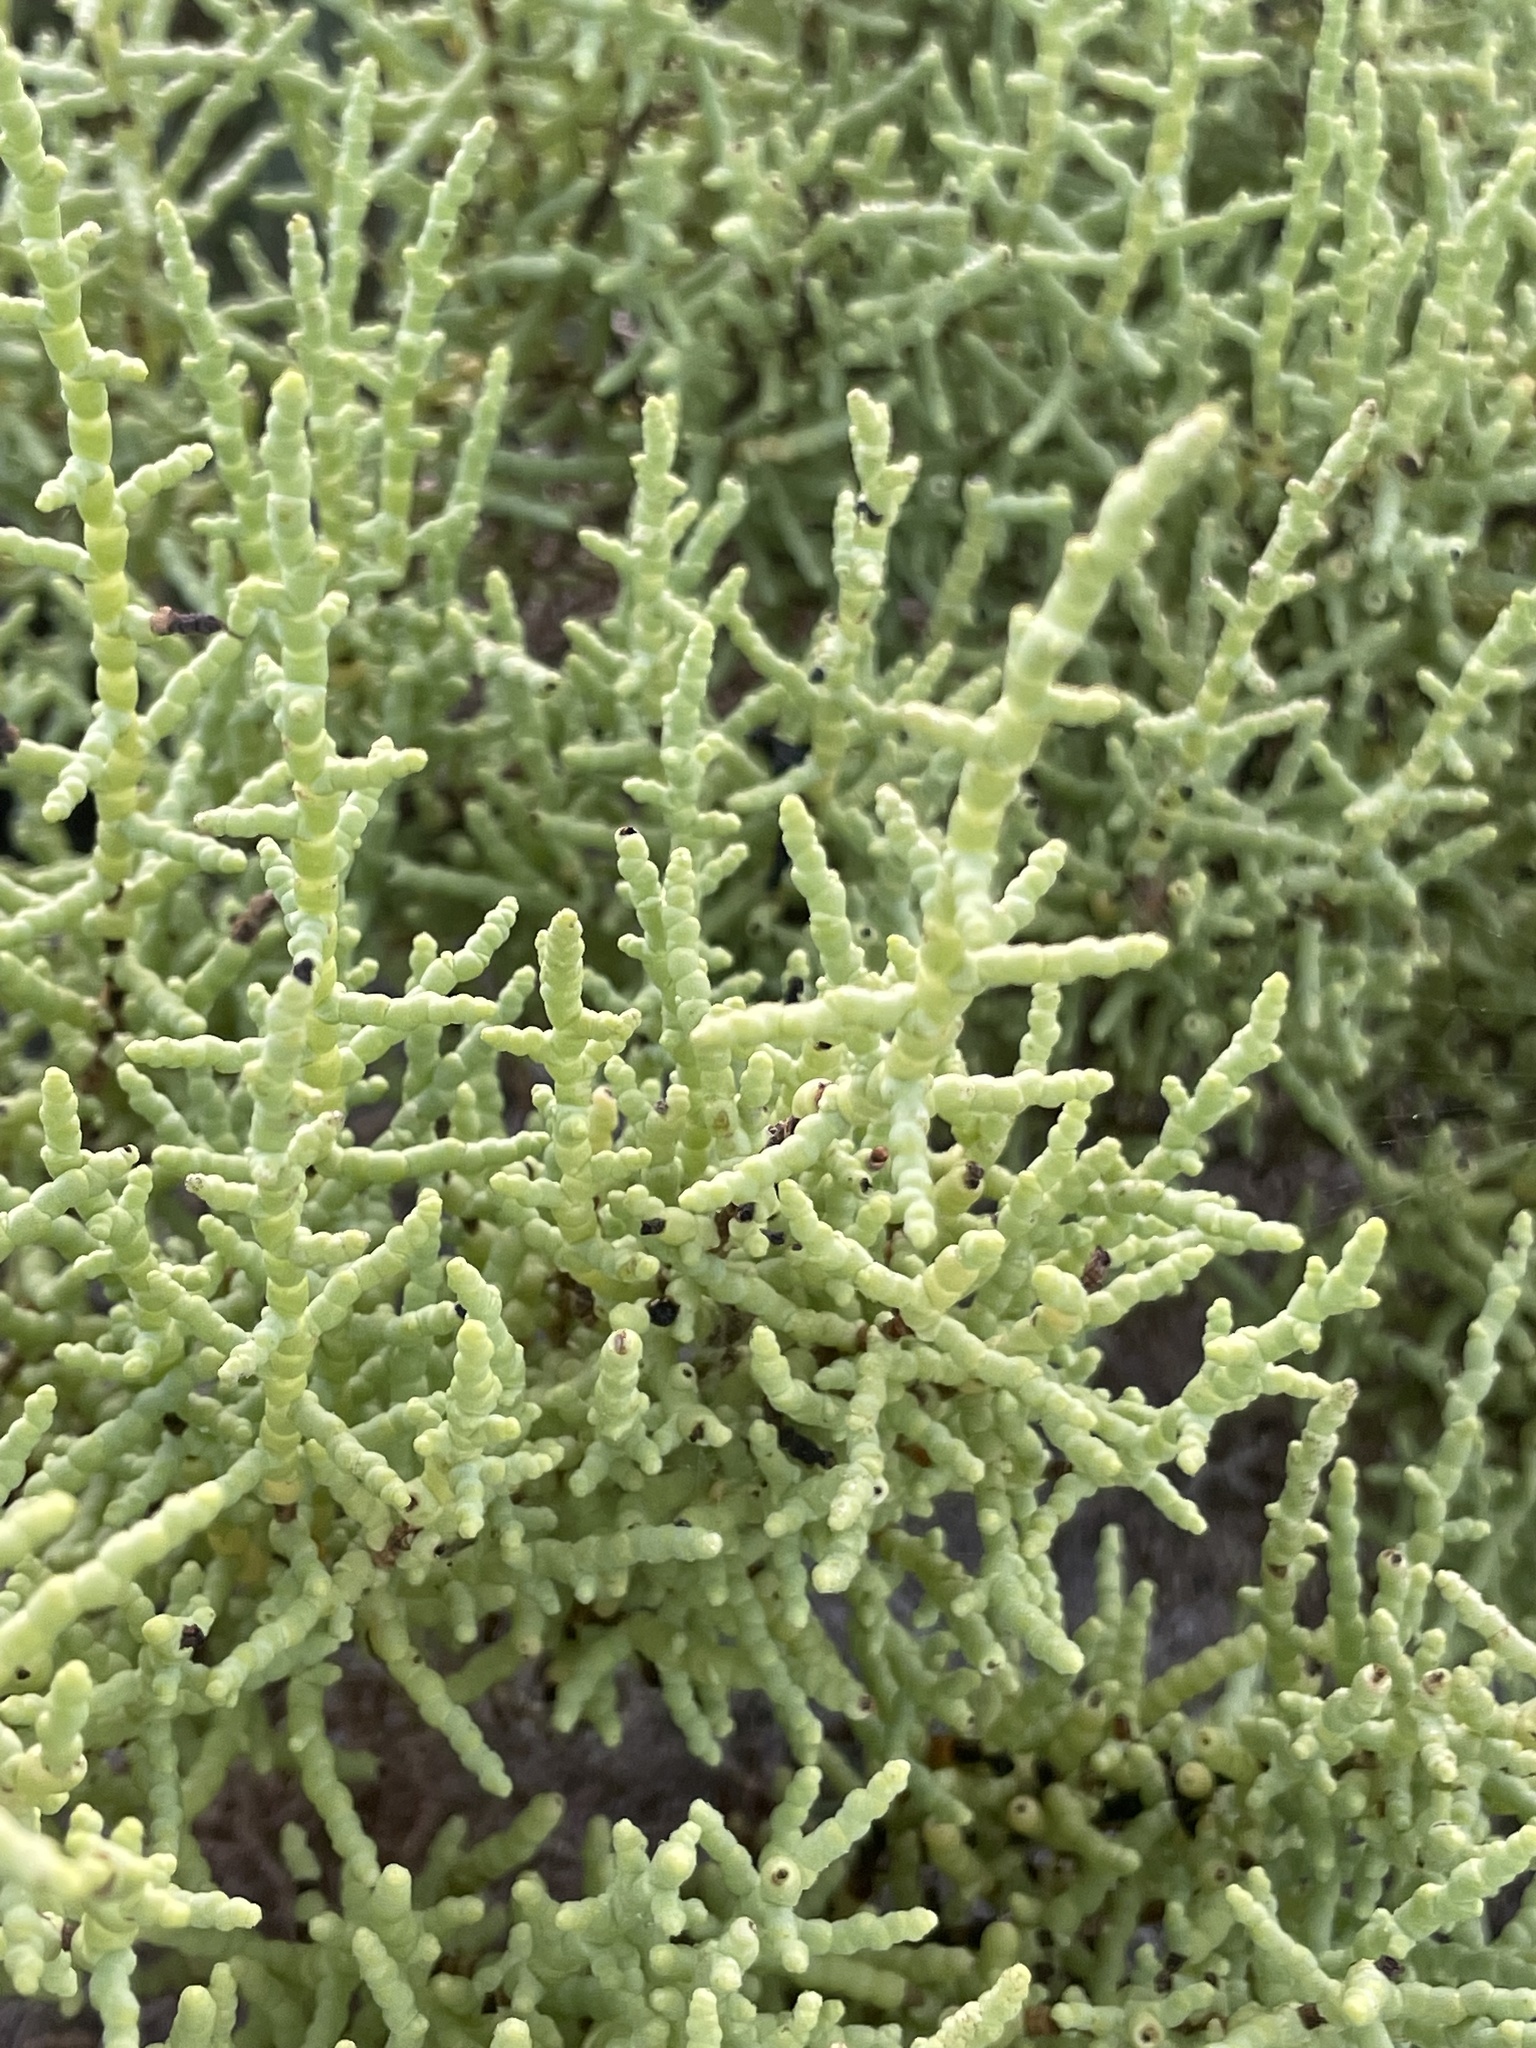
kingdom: Plantae
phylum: Tracheophyta
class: Magnoliopsida
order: Caryophyllales
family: Amaranthaceae
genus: Allenrolfea
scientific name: Allenrolfea occidentalis
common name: Iodine-bush
